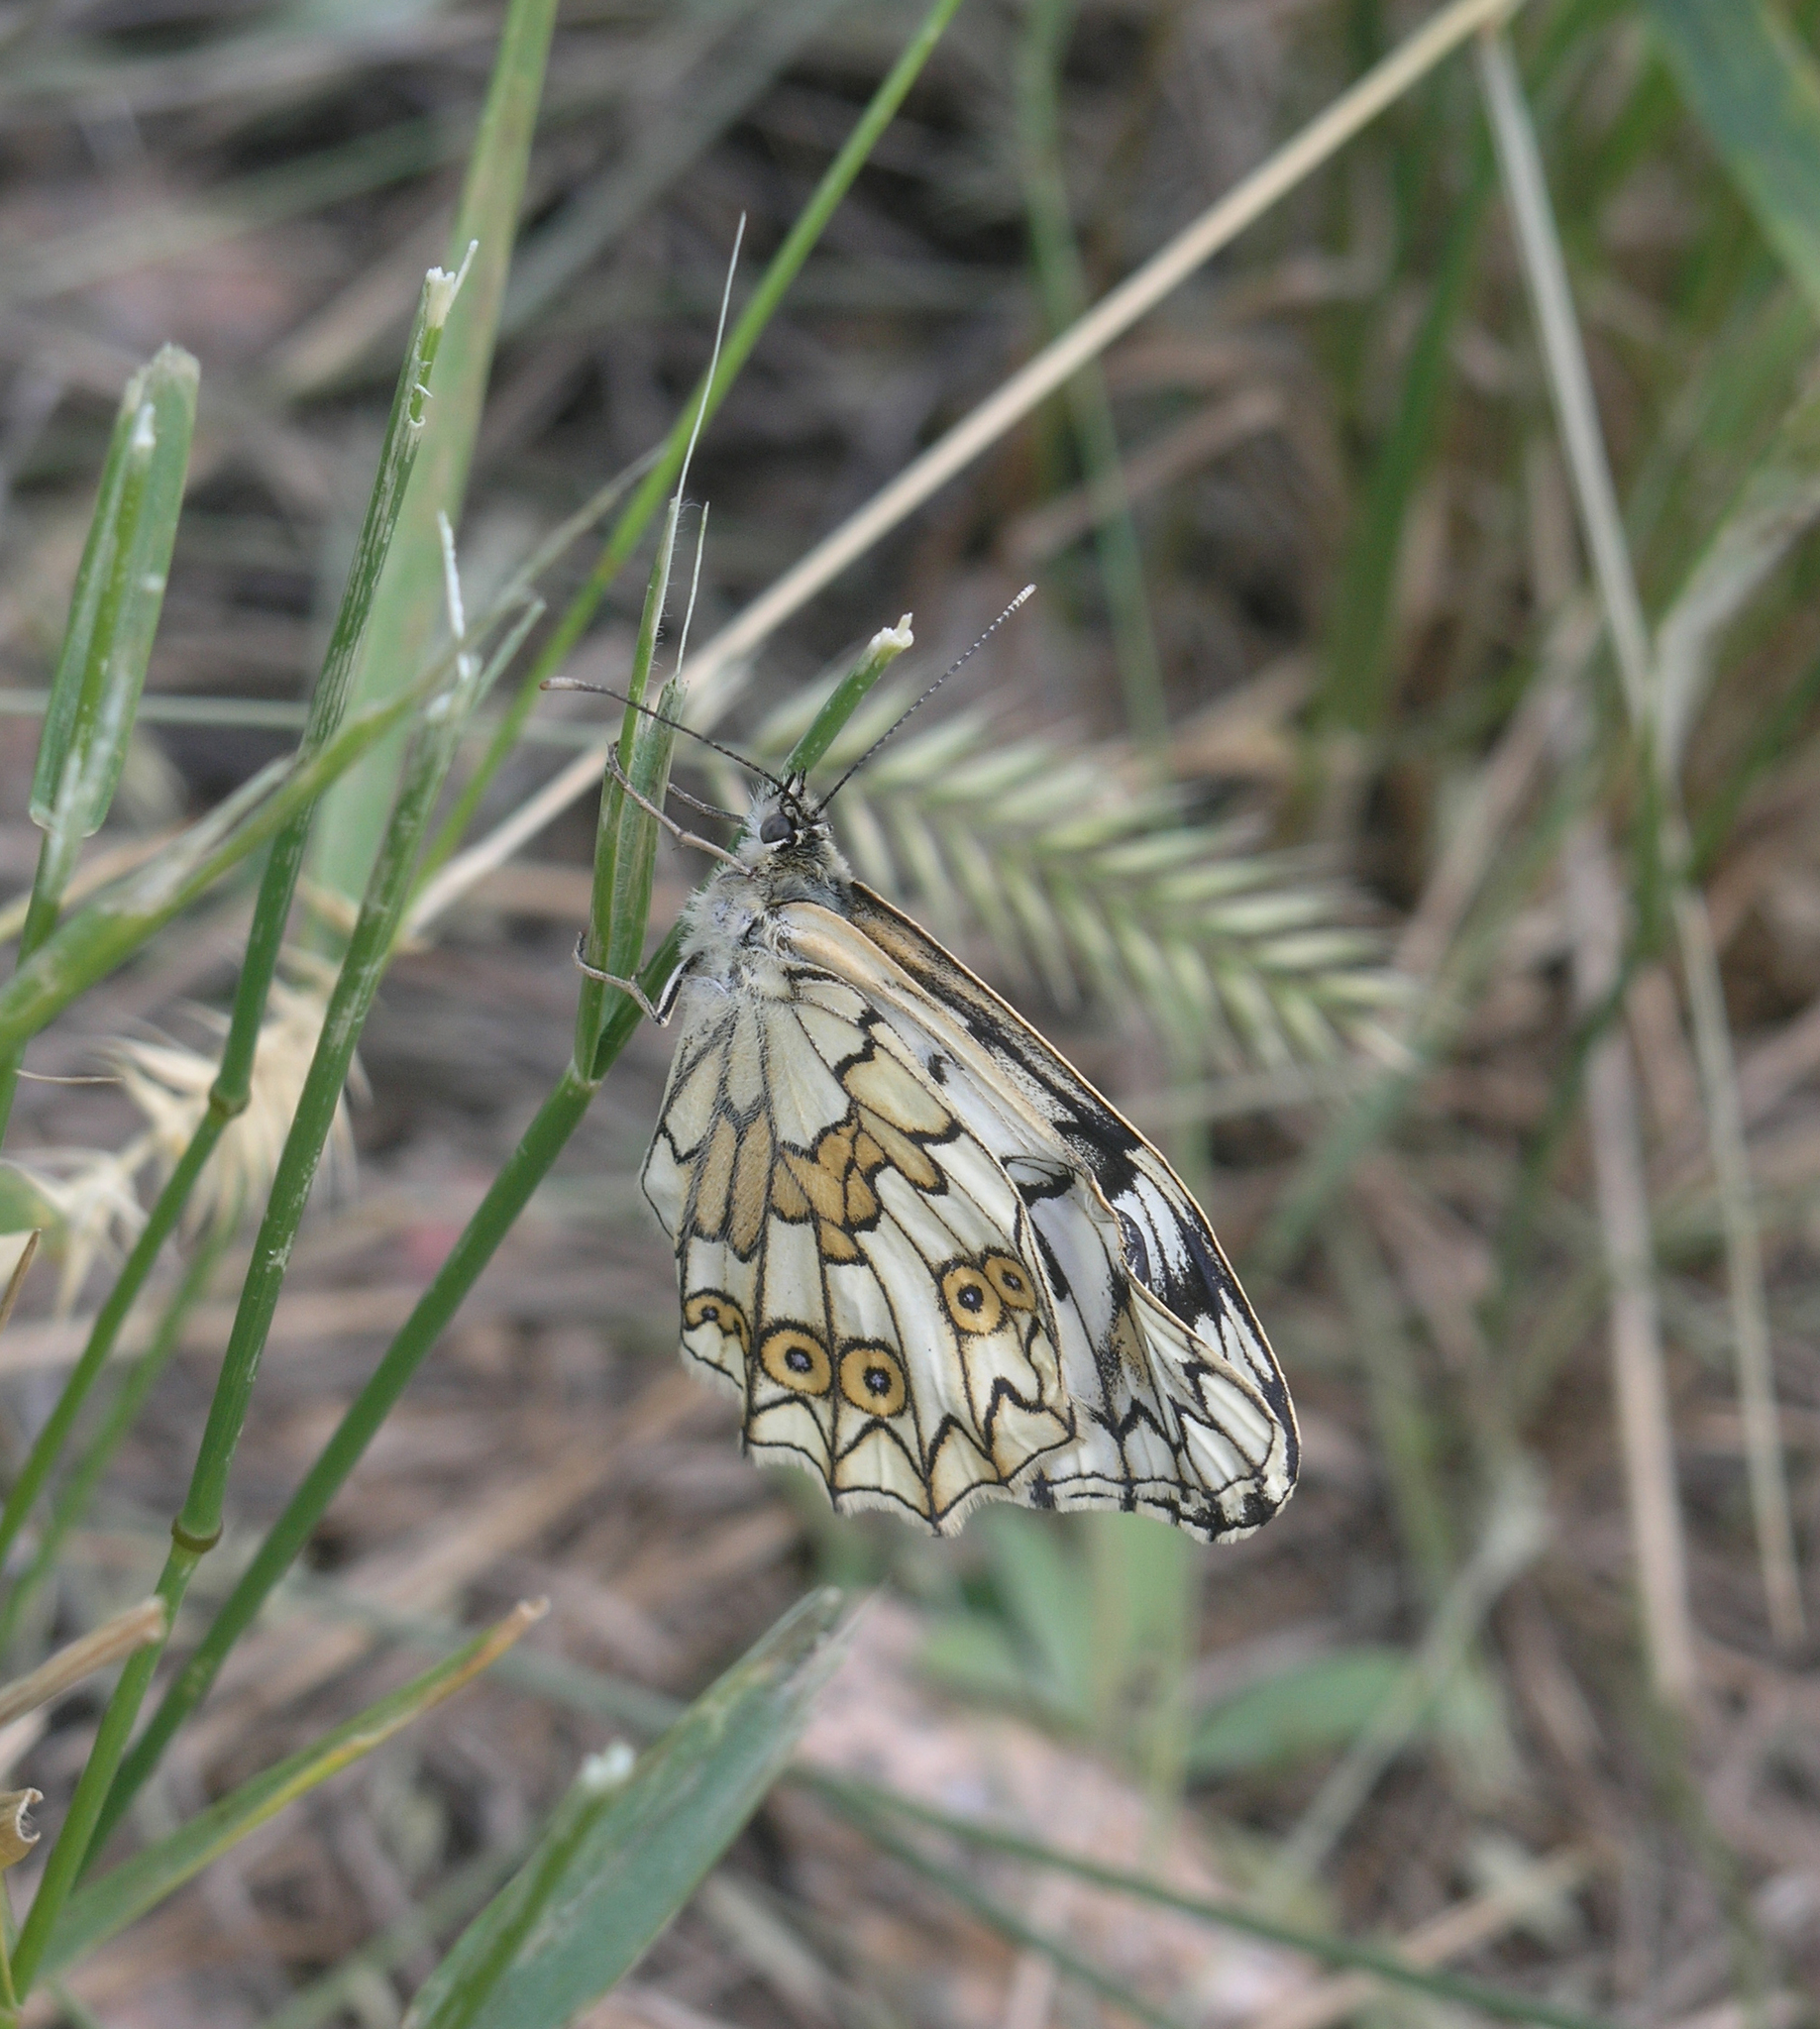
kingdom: Animalia
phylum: Arthropoda
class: Insecta
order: Lepidoptera
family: Nymphalidae
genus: Melanargia
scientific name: Melanargia japygia
